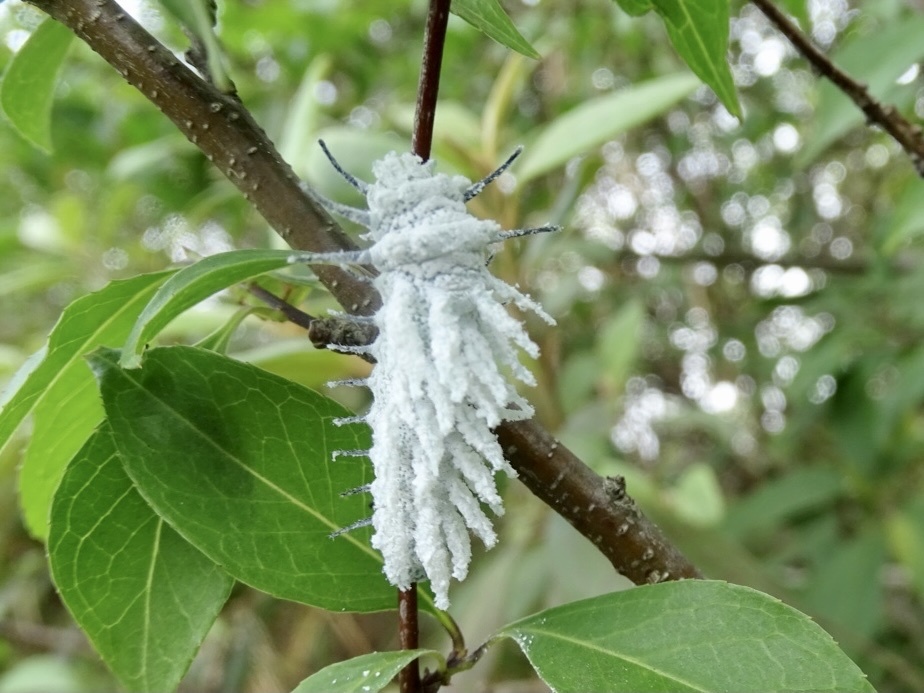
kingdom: Animalia
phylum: Arthropoda
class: Insecta
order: Lepidoptera
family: Saturniidae
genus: Attacus
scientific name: Attacus atlas
